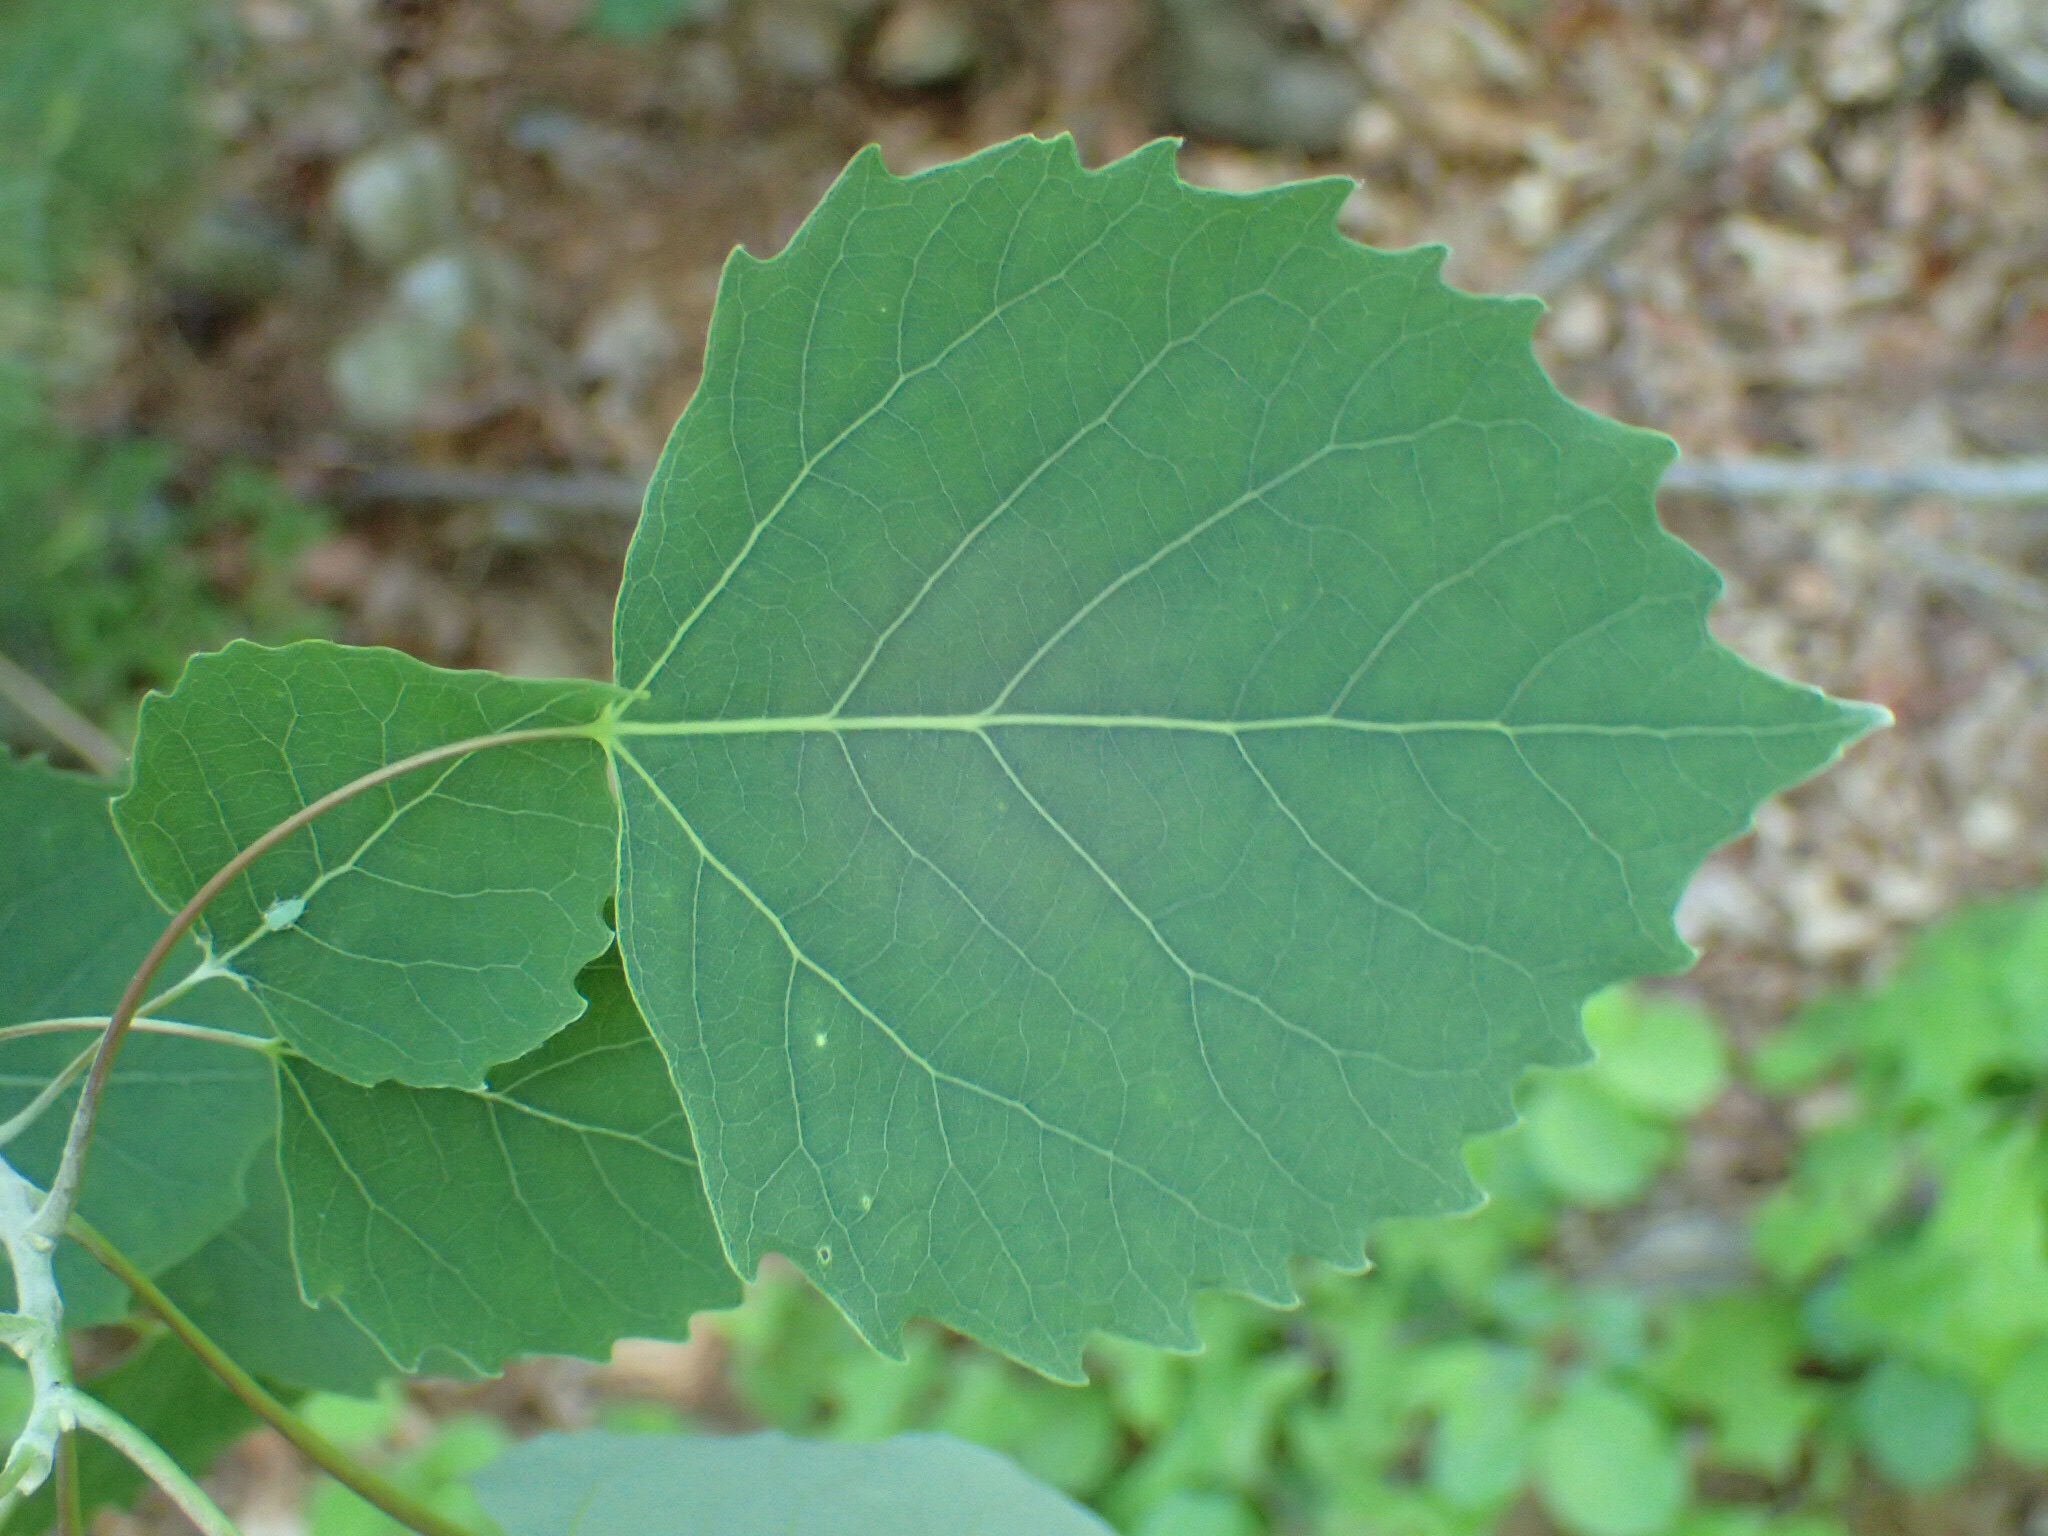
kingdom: Plantae
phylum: Tracheophyta
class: Magnoliopsida
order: Malpighiales
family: Salicaceae
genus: Populus
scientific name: Populus grandidentata
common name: Bigtooth aspen
